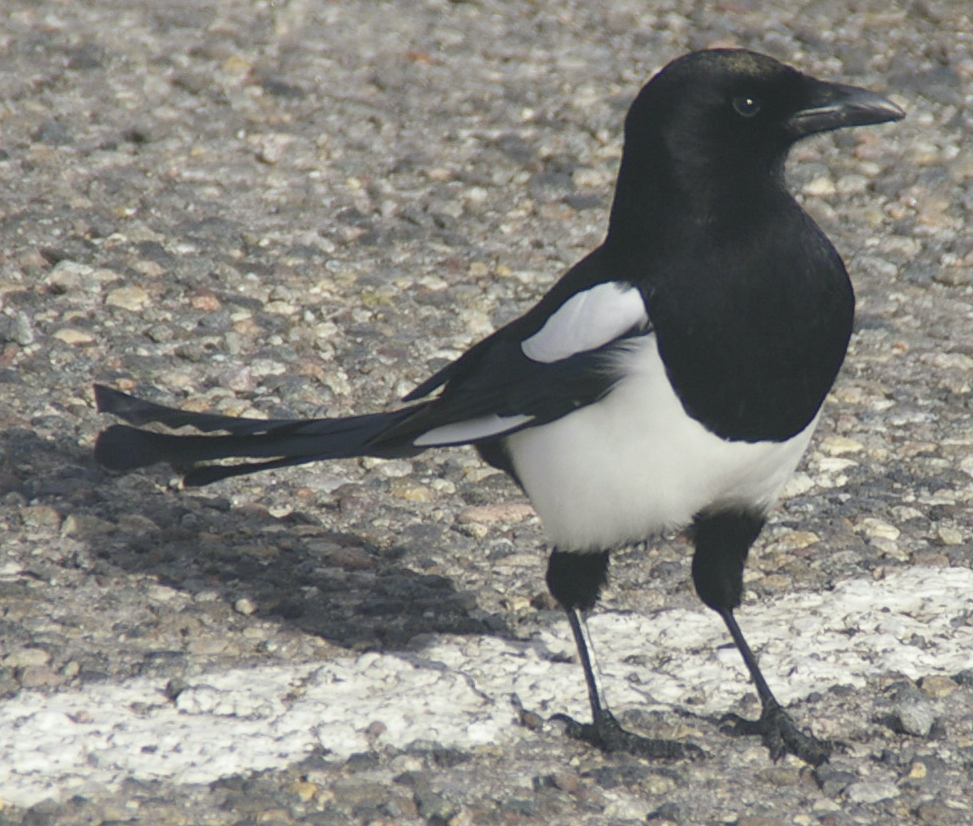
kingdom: Animalia
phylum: Chordata
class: Aves
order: Passeriformes
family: Corvidae
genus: Pica
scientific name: Pica hudsonia
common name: Black-billed magpie
